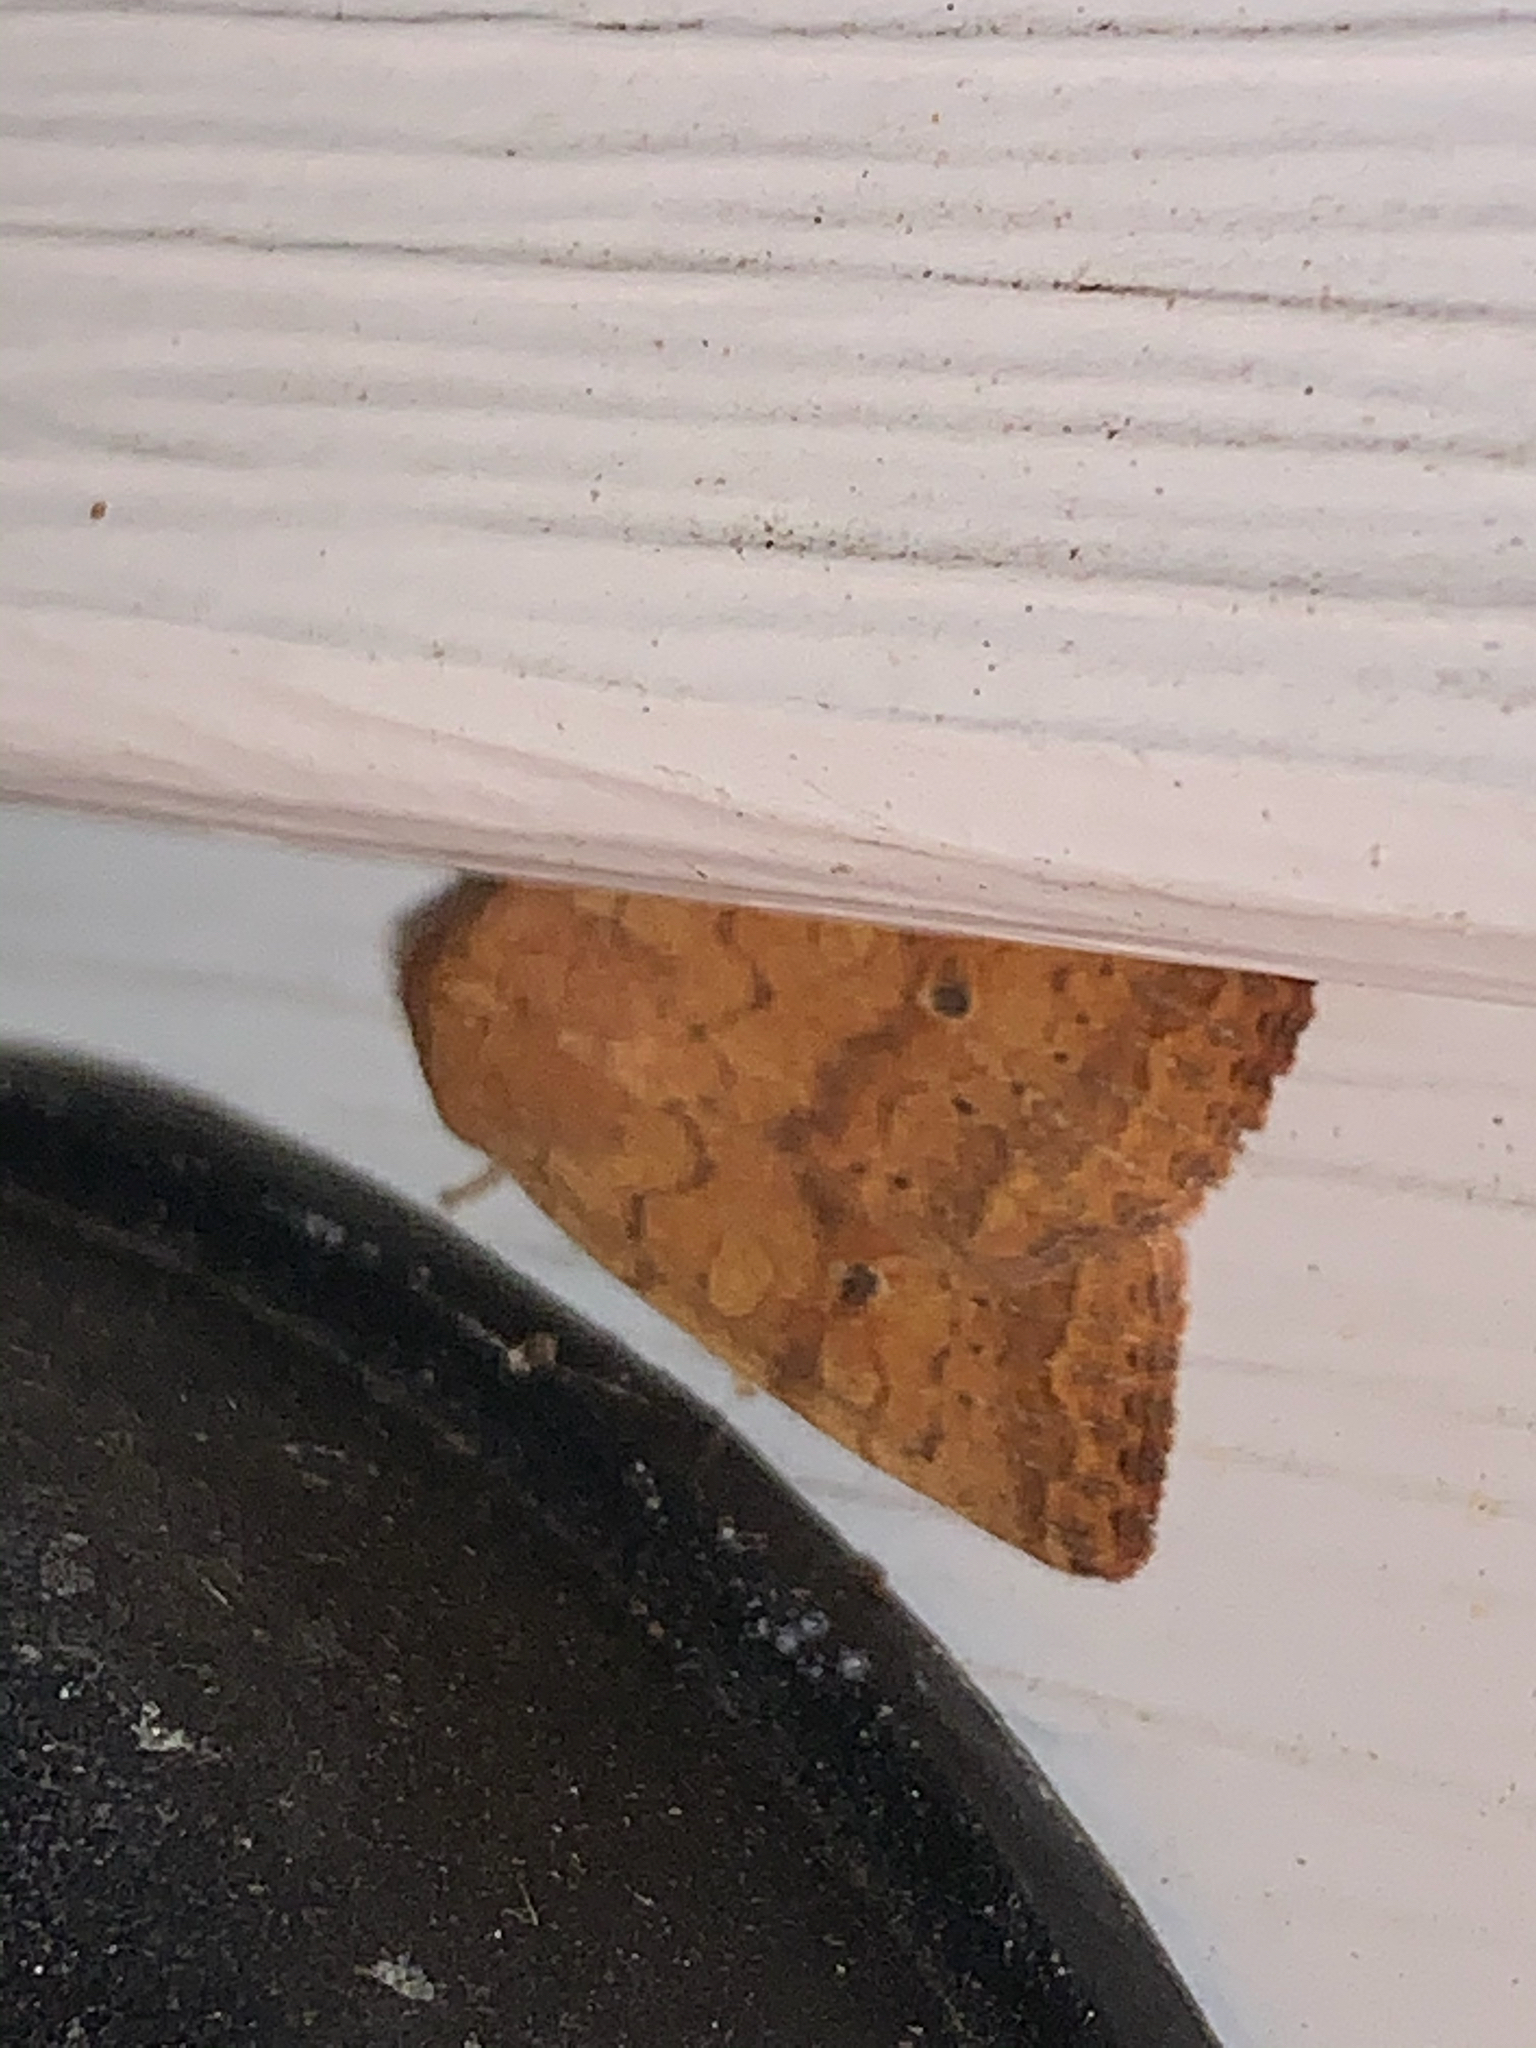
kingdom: Animalia
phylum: Arthropoda
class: Insecta
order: Lepidoptera
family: Noctuidae
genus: Agrochola
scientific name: Agrochola bicolorago
